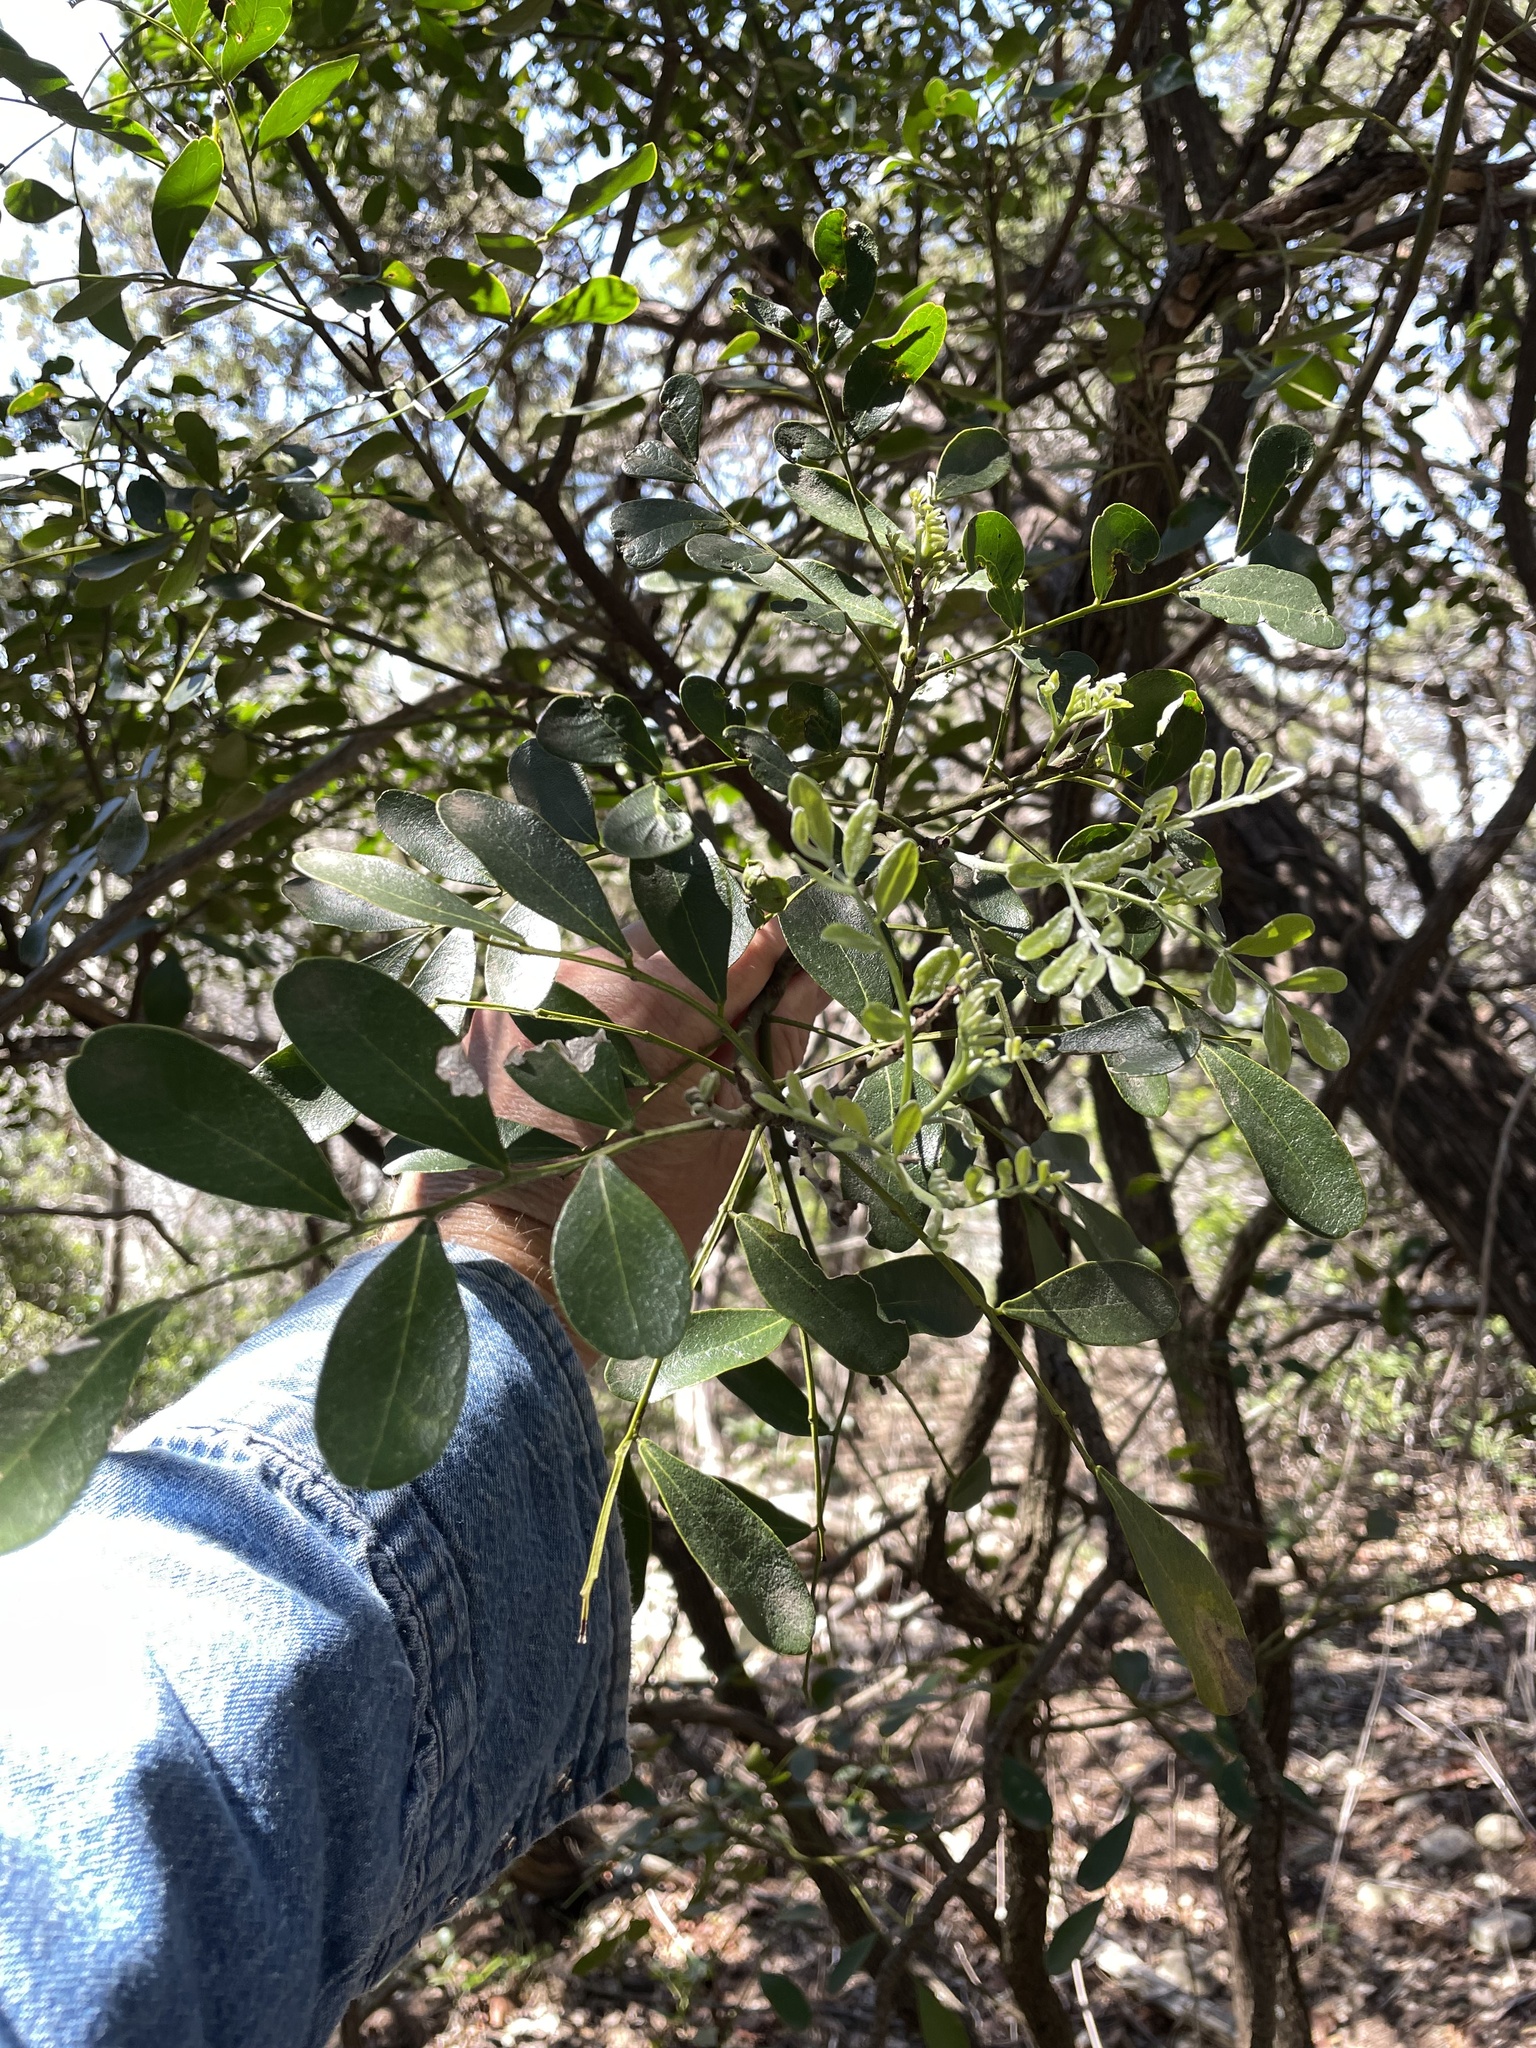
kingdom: Plantae
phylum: Tracheophyta
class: Magnoliopsida
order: Fabales
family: Fabaceae
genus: Dermatophyllum
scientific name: Dermatophyllum secundiflorum
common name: Texas-mountain-laurel
